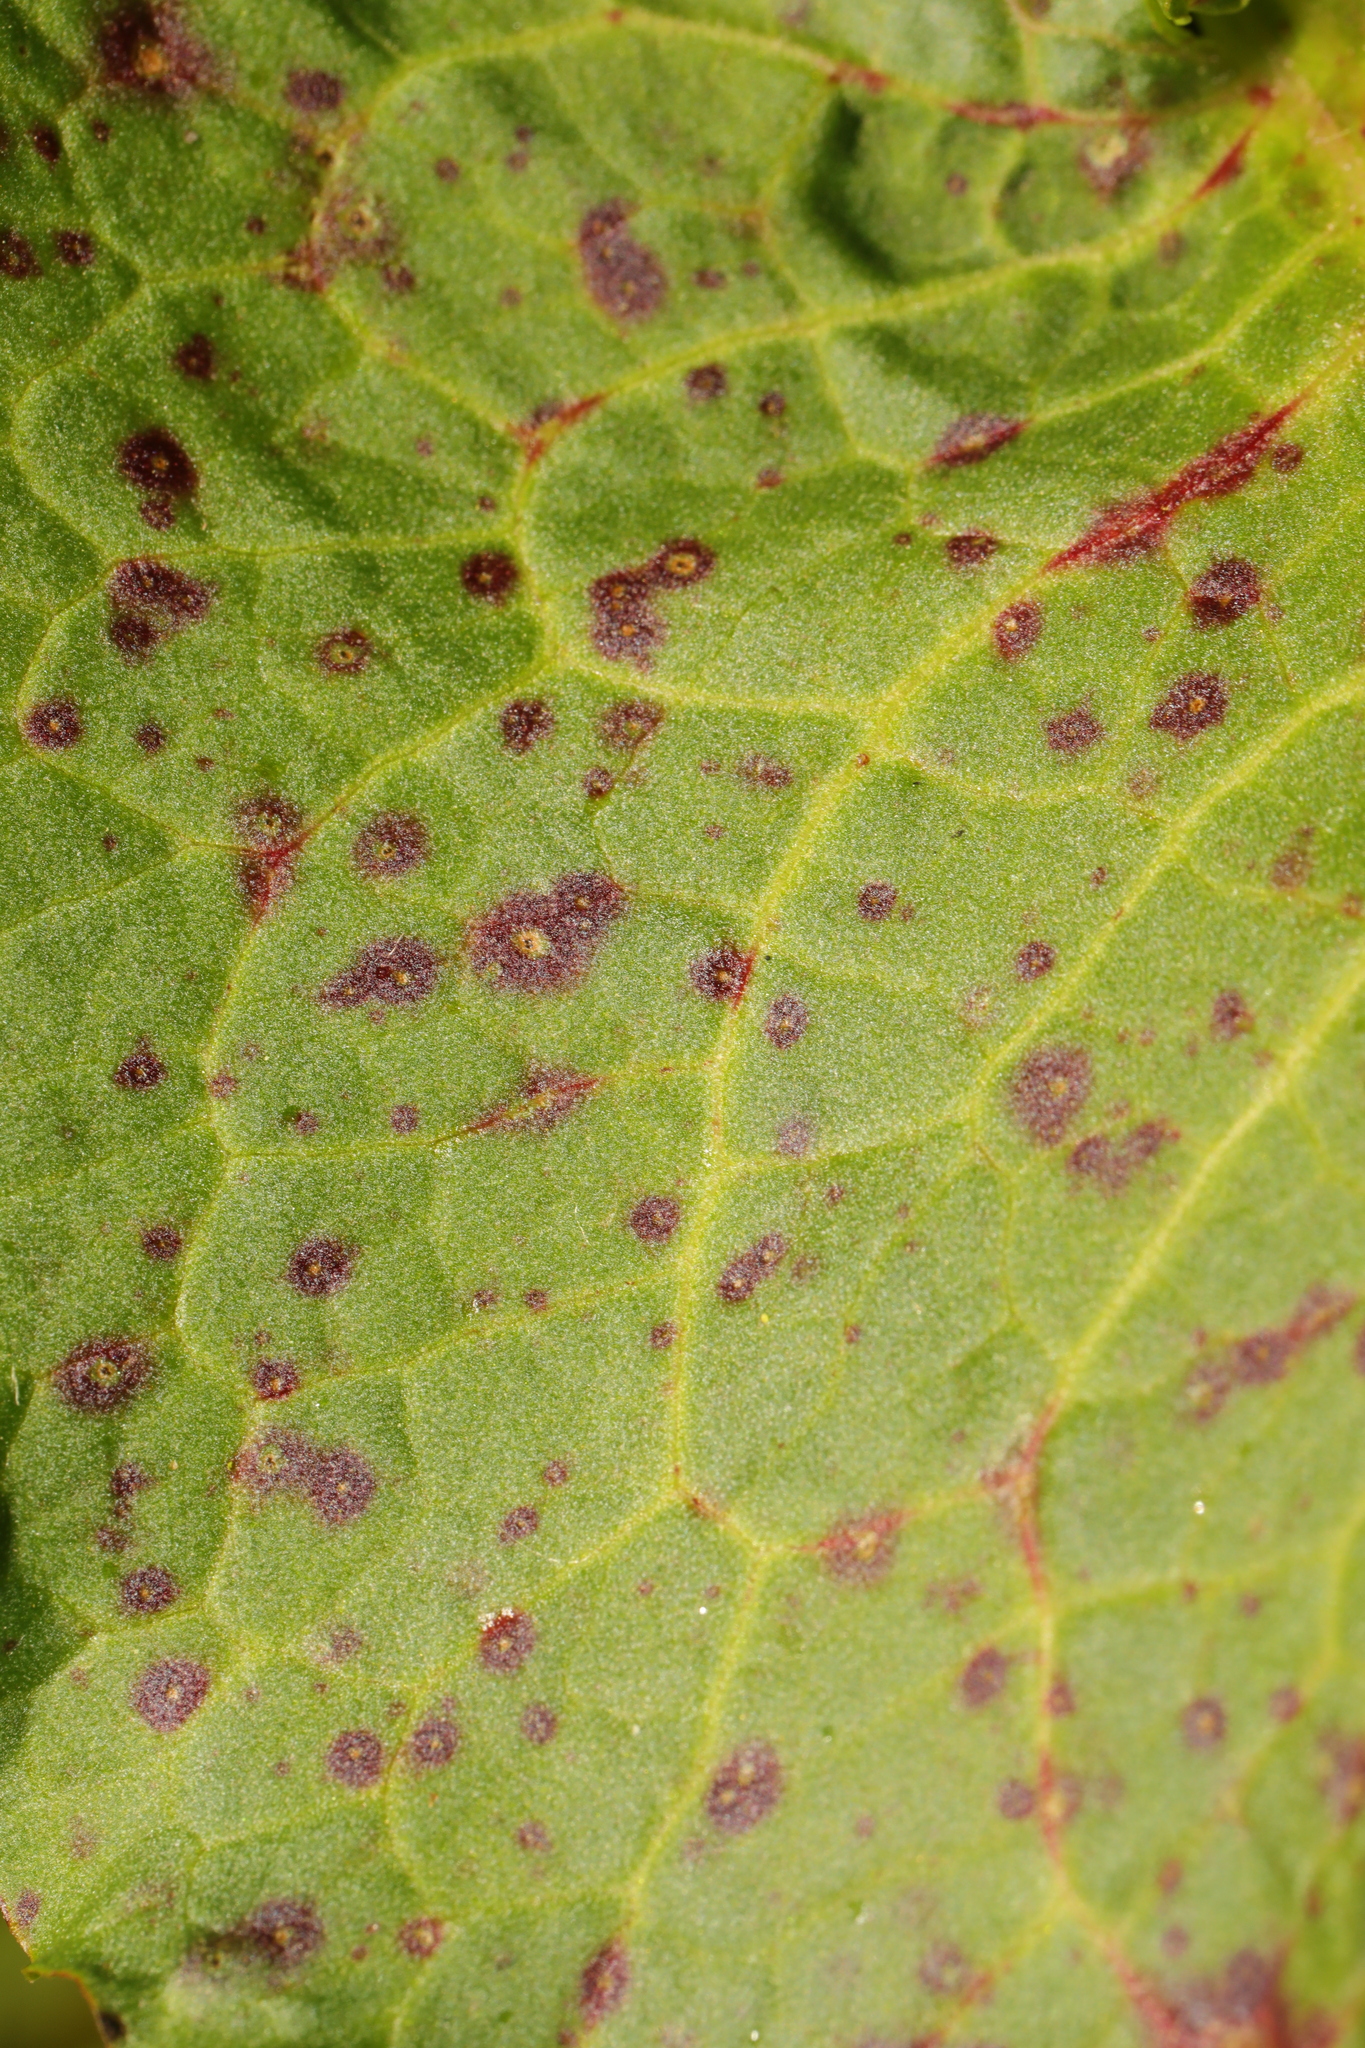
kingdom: Fungi
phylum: Ascomycota
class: Dothideomycetes
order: Mycosphaerellales
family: Mycosphaerellaceae
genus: Ramularia
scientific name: Ramularia rubella
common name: Red dock spot
